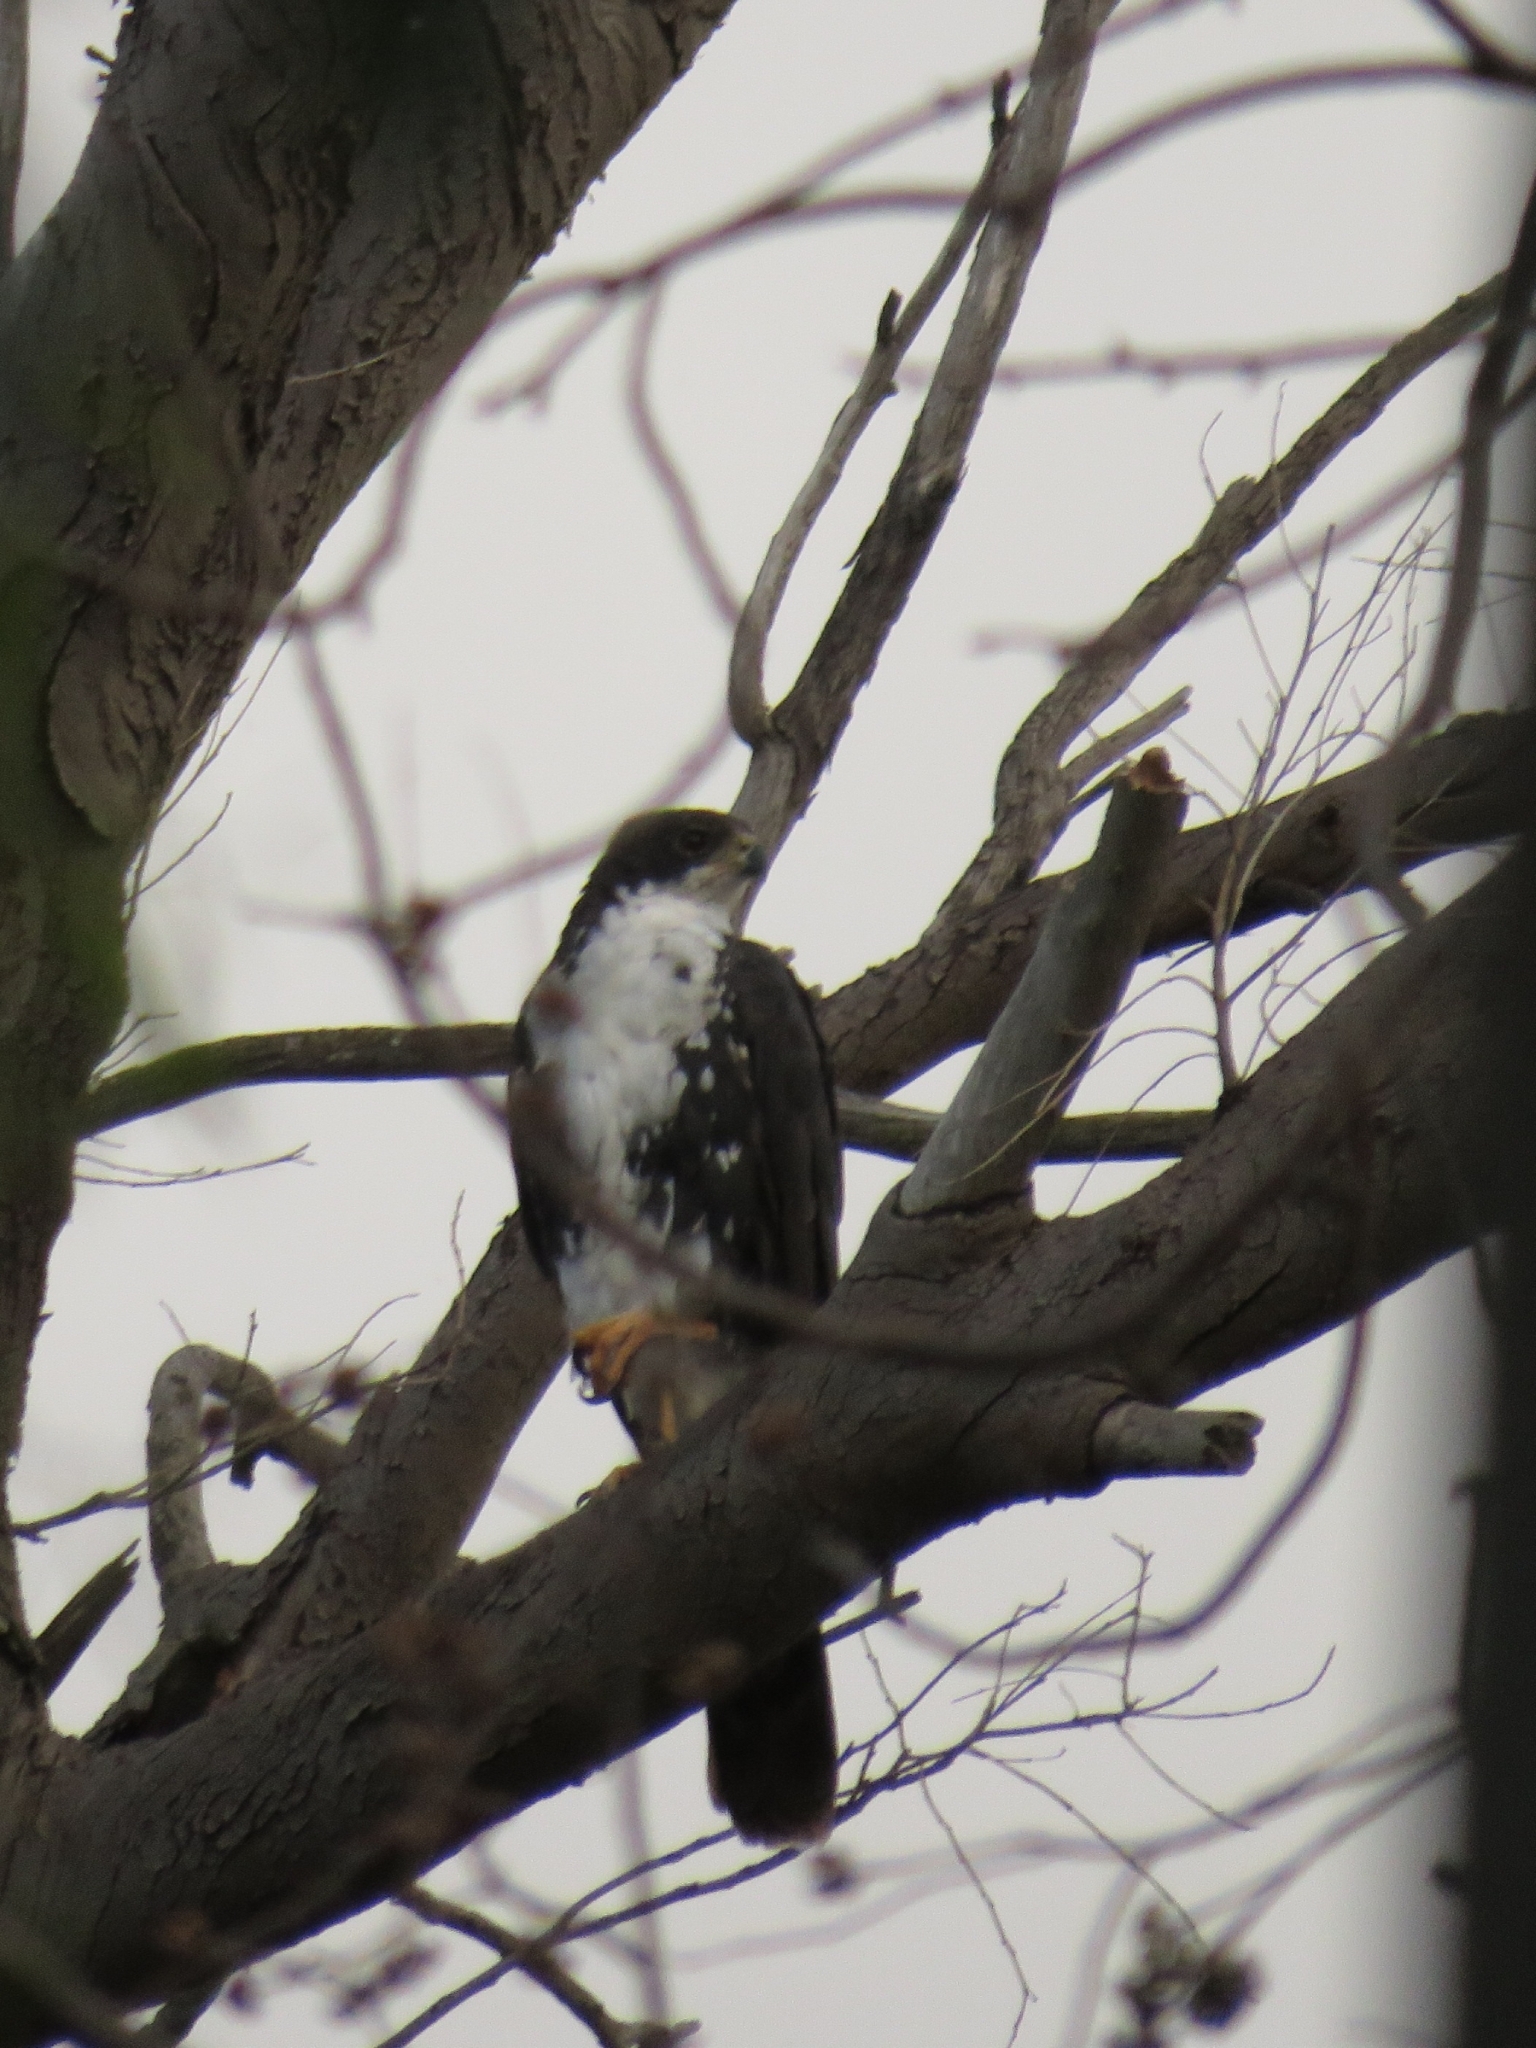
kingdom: Animalia
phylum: Chordata
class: Aves
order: Accipitriformes
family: Accipitridae
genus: Accipiter
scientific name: Accipiter melanoleucus
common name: Black sparrowhawk
